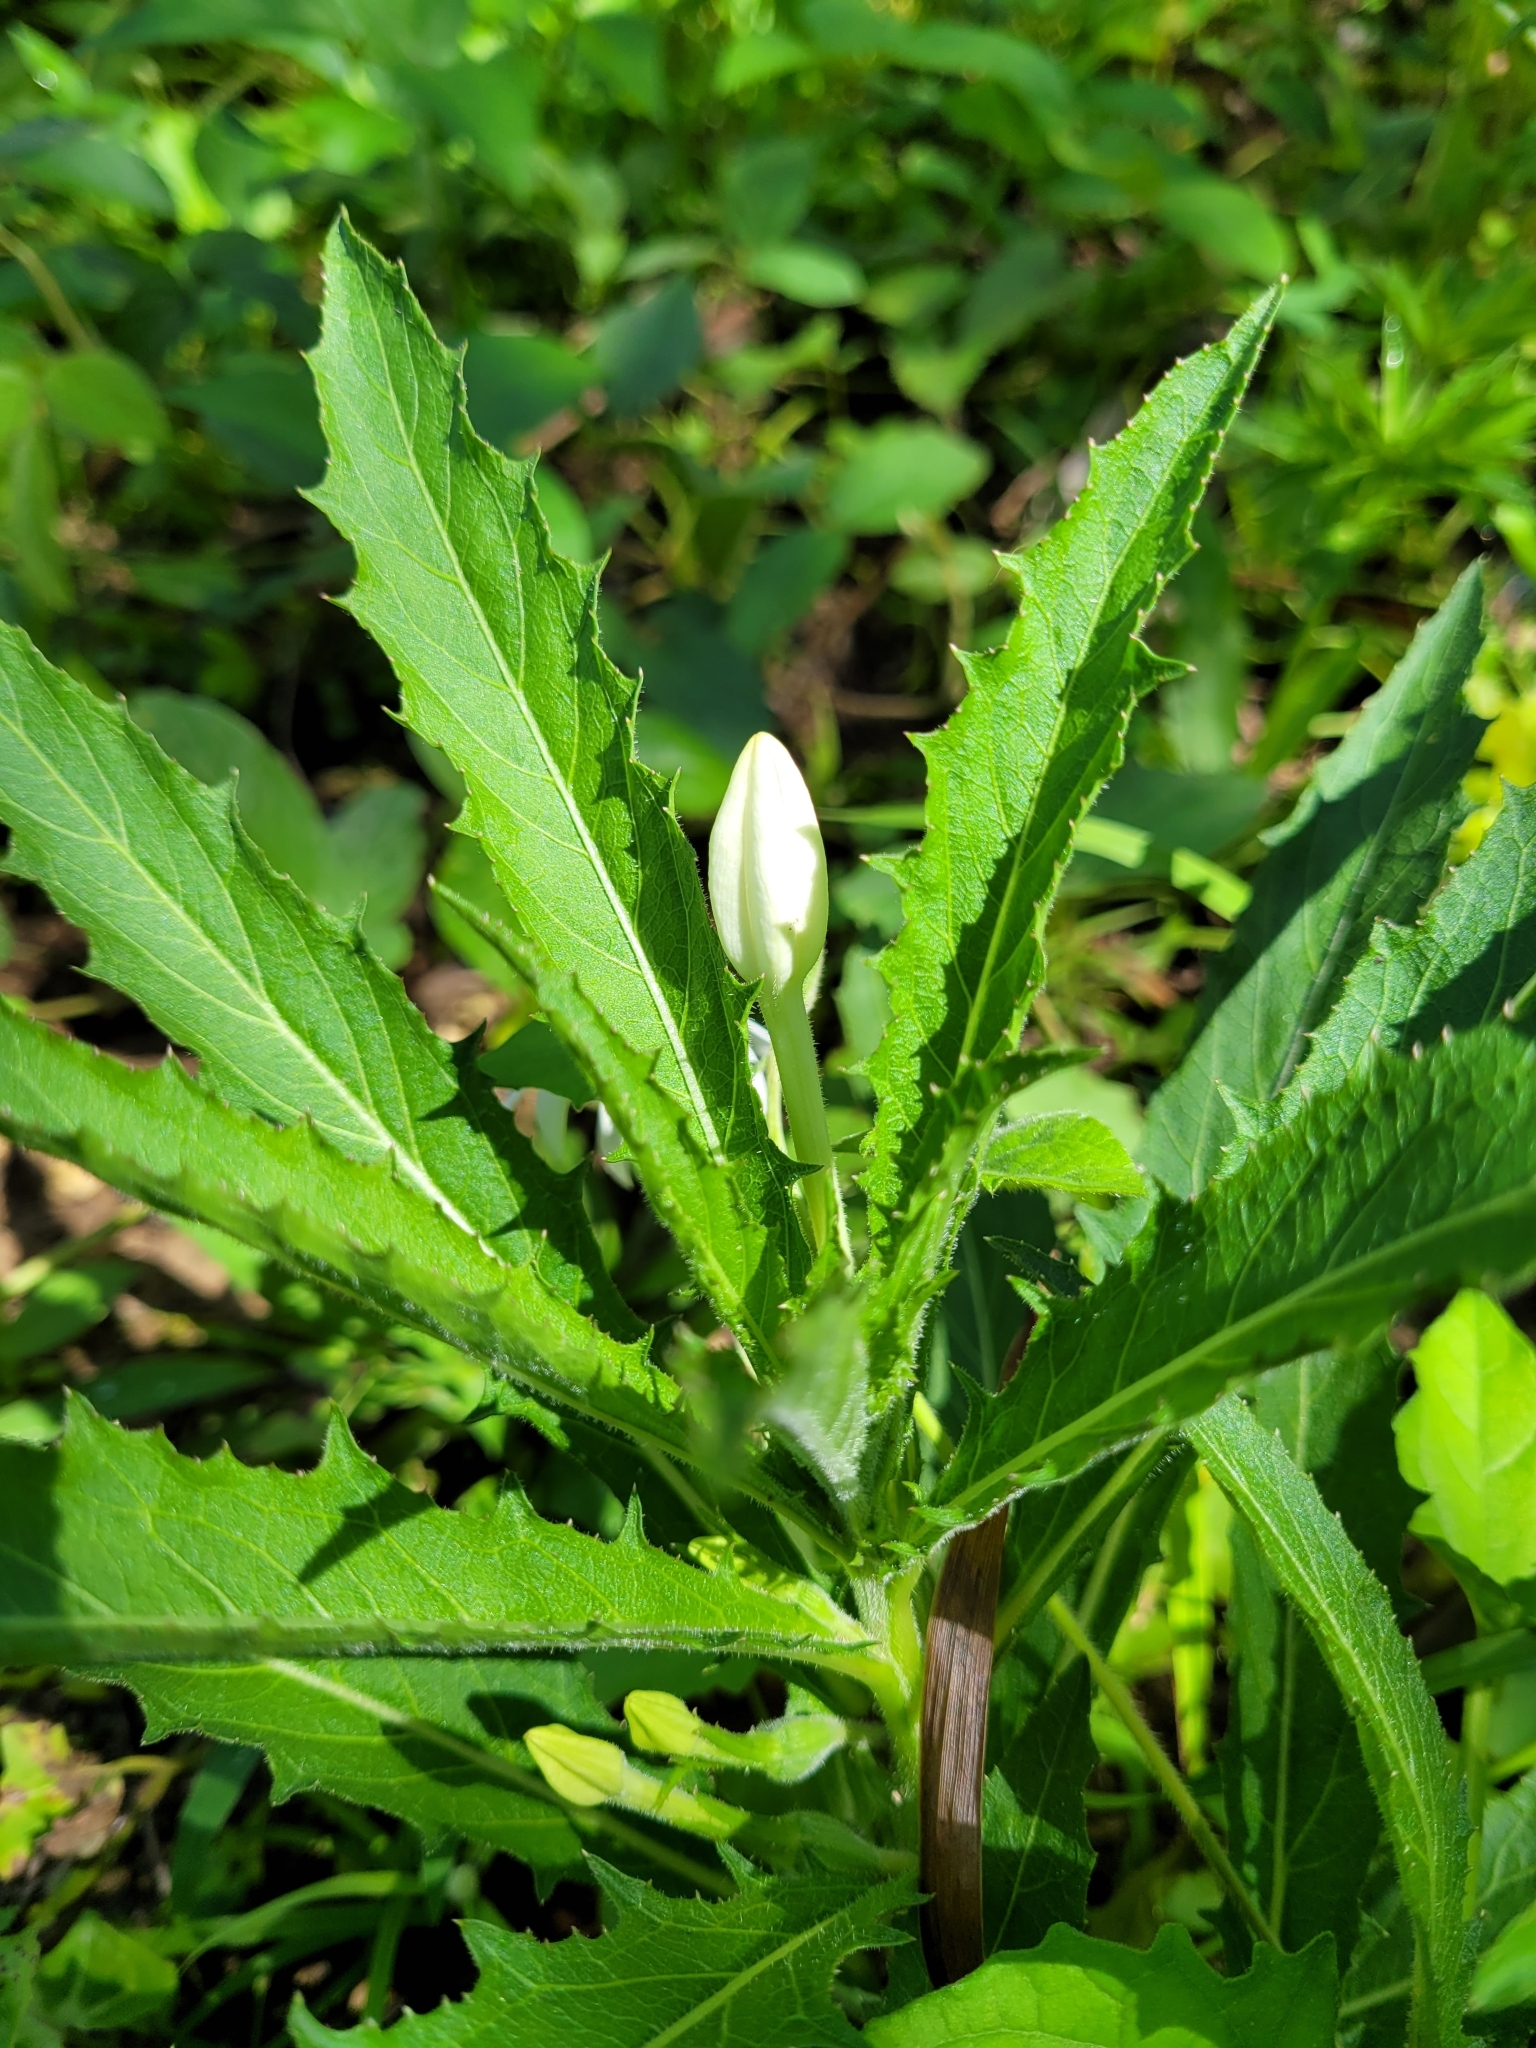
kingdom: Plantae
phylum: Tracheophyta
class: Magnoliopsida
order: Asterales
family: Campanulaceae
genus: Hippobroma
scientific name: Hippobroma longiflora
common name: Madamfate
